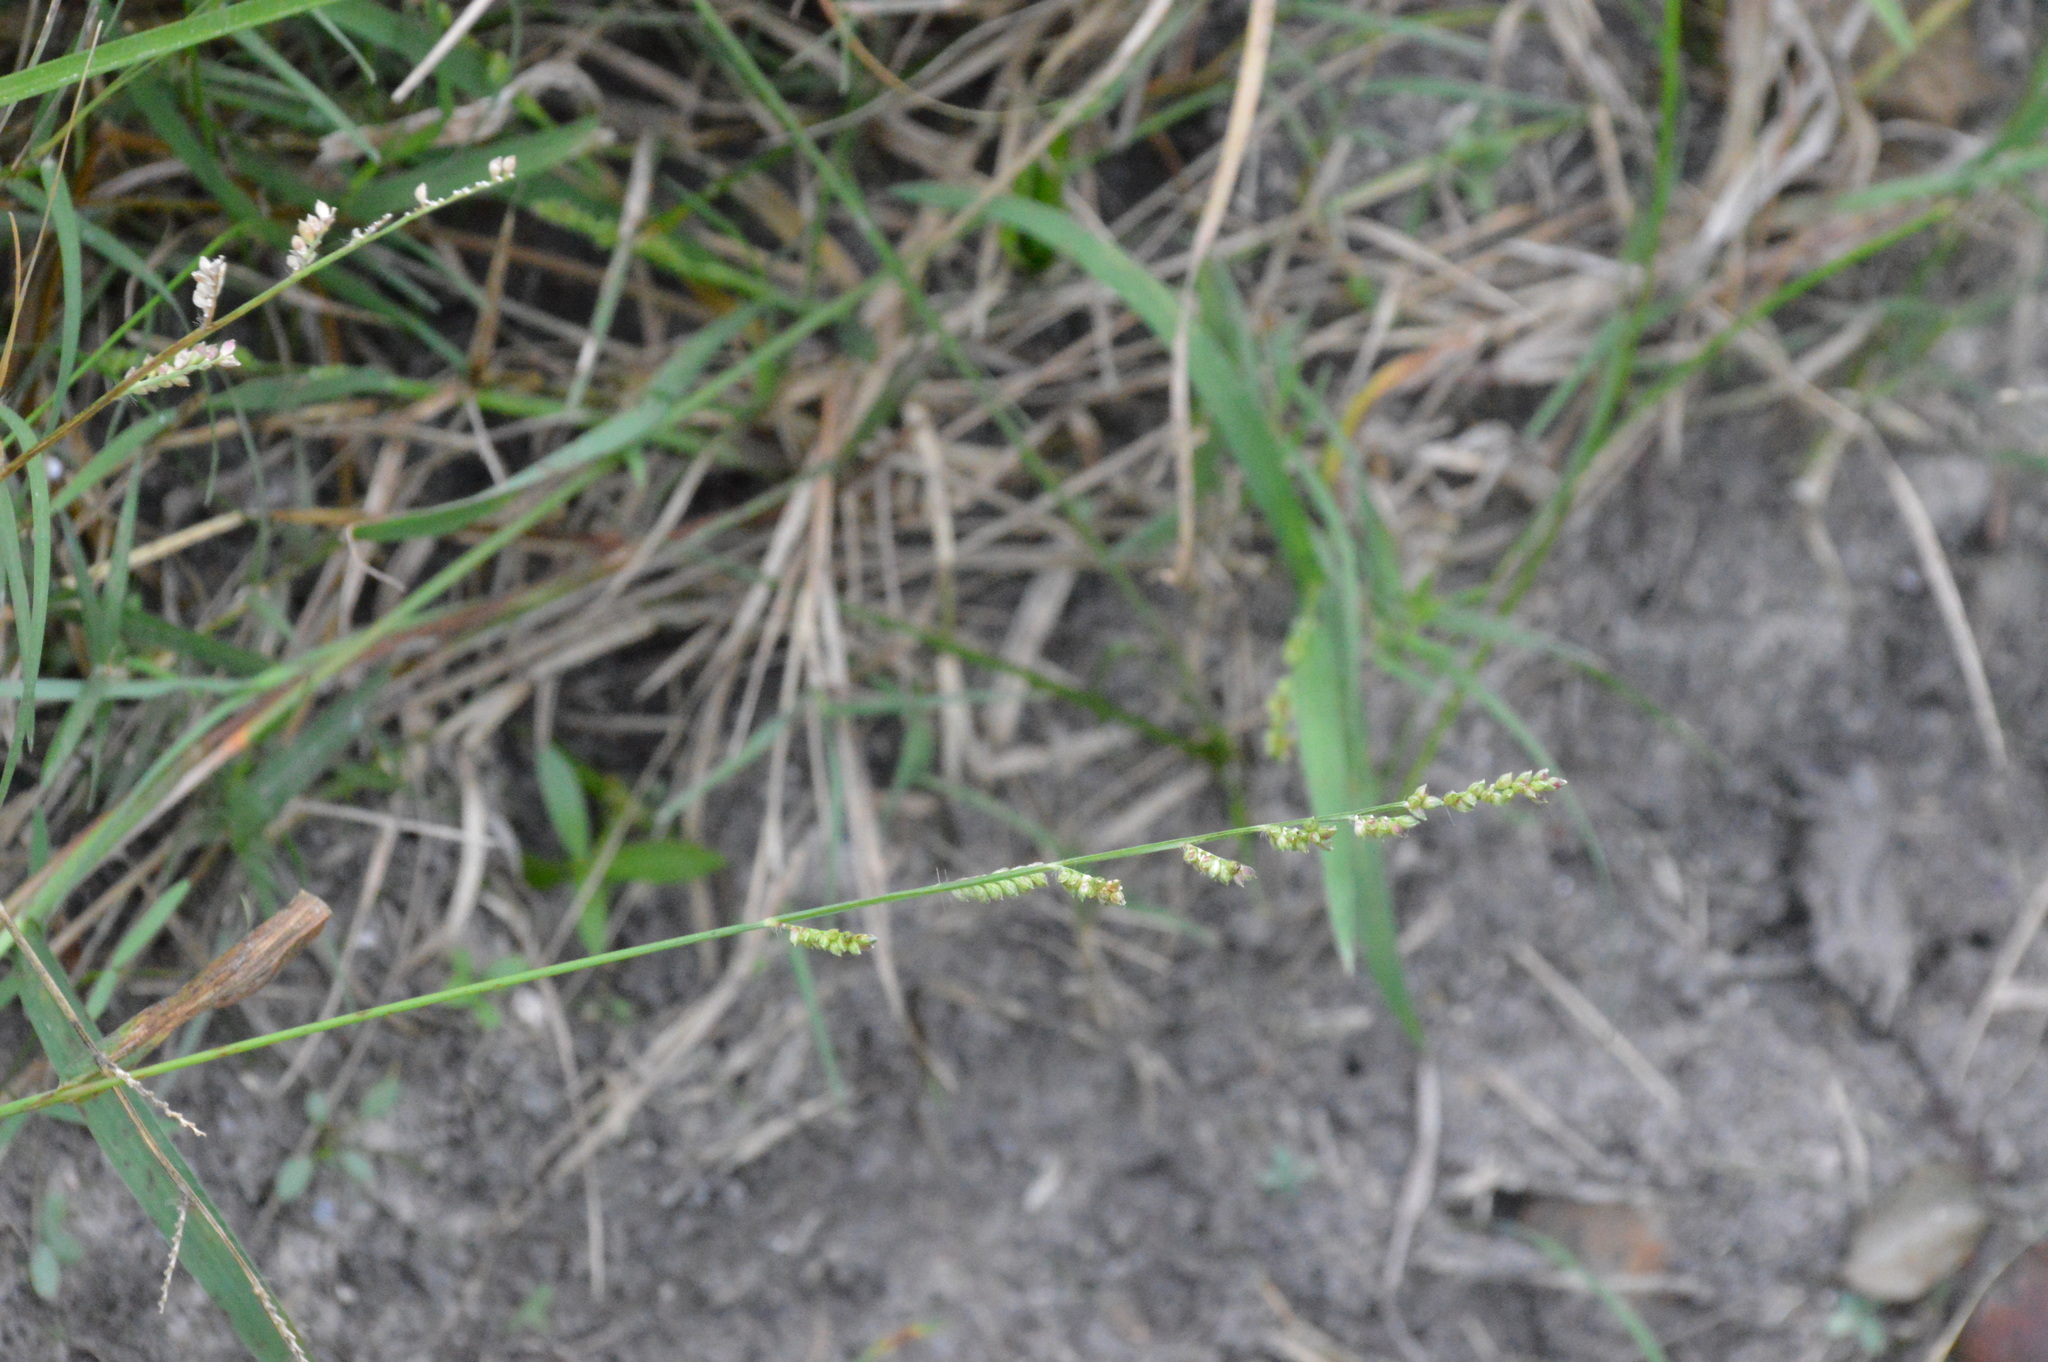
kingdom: Plantae
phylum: Tracheophyta
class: Liliopsida
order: Poales
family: Poaceae
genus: Echinochloa
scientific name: Echinochloa colonum
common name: Jungle rice
